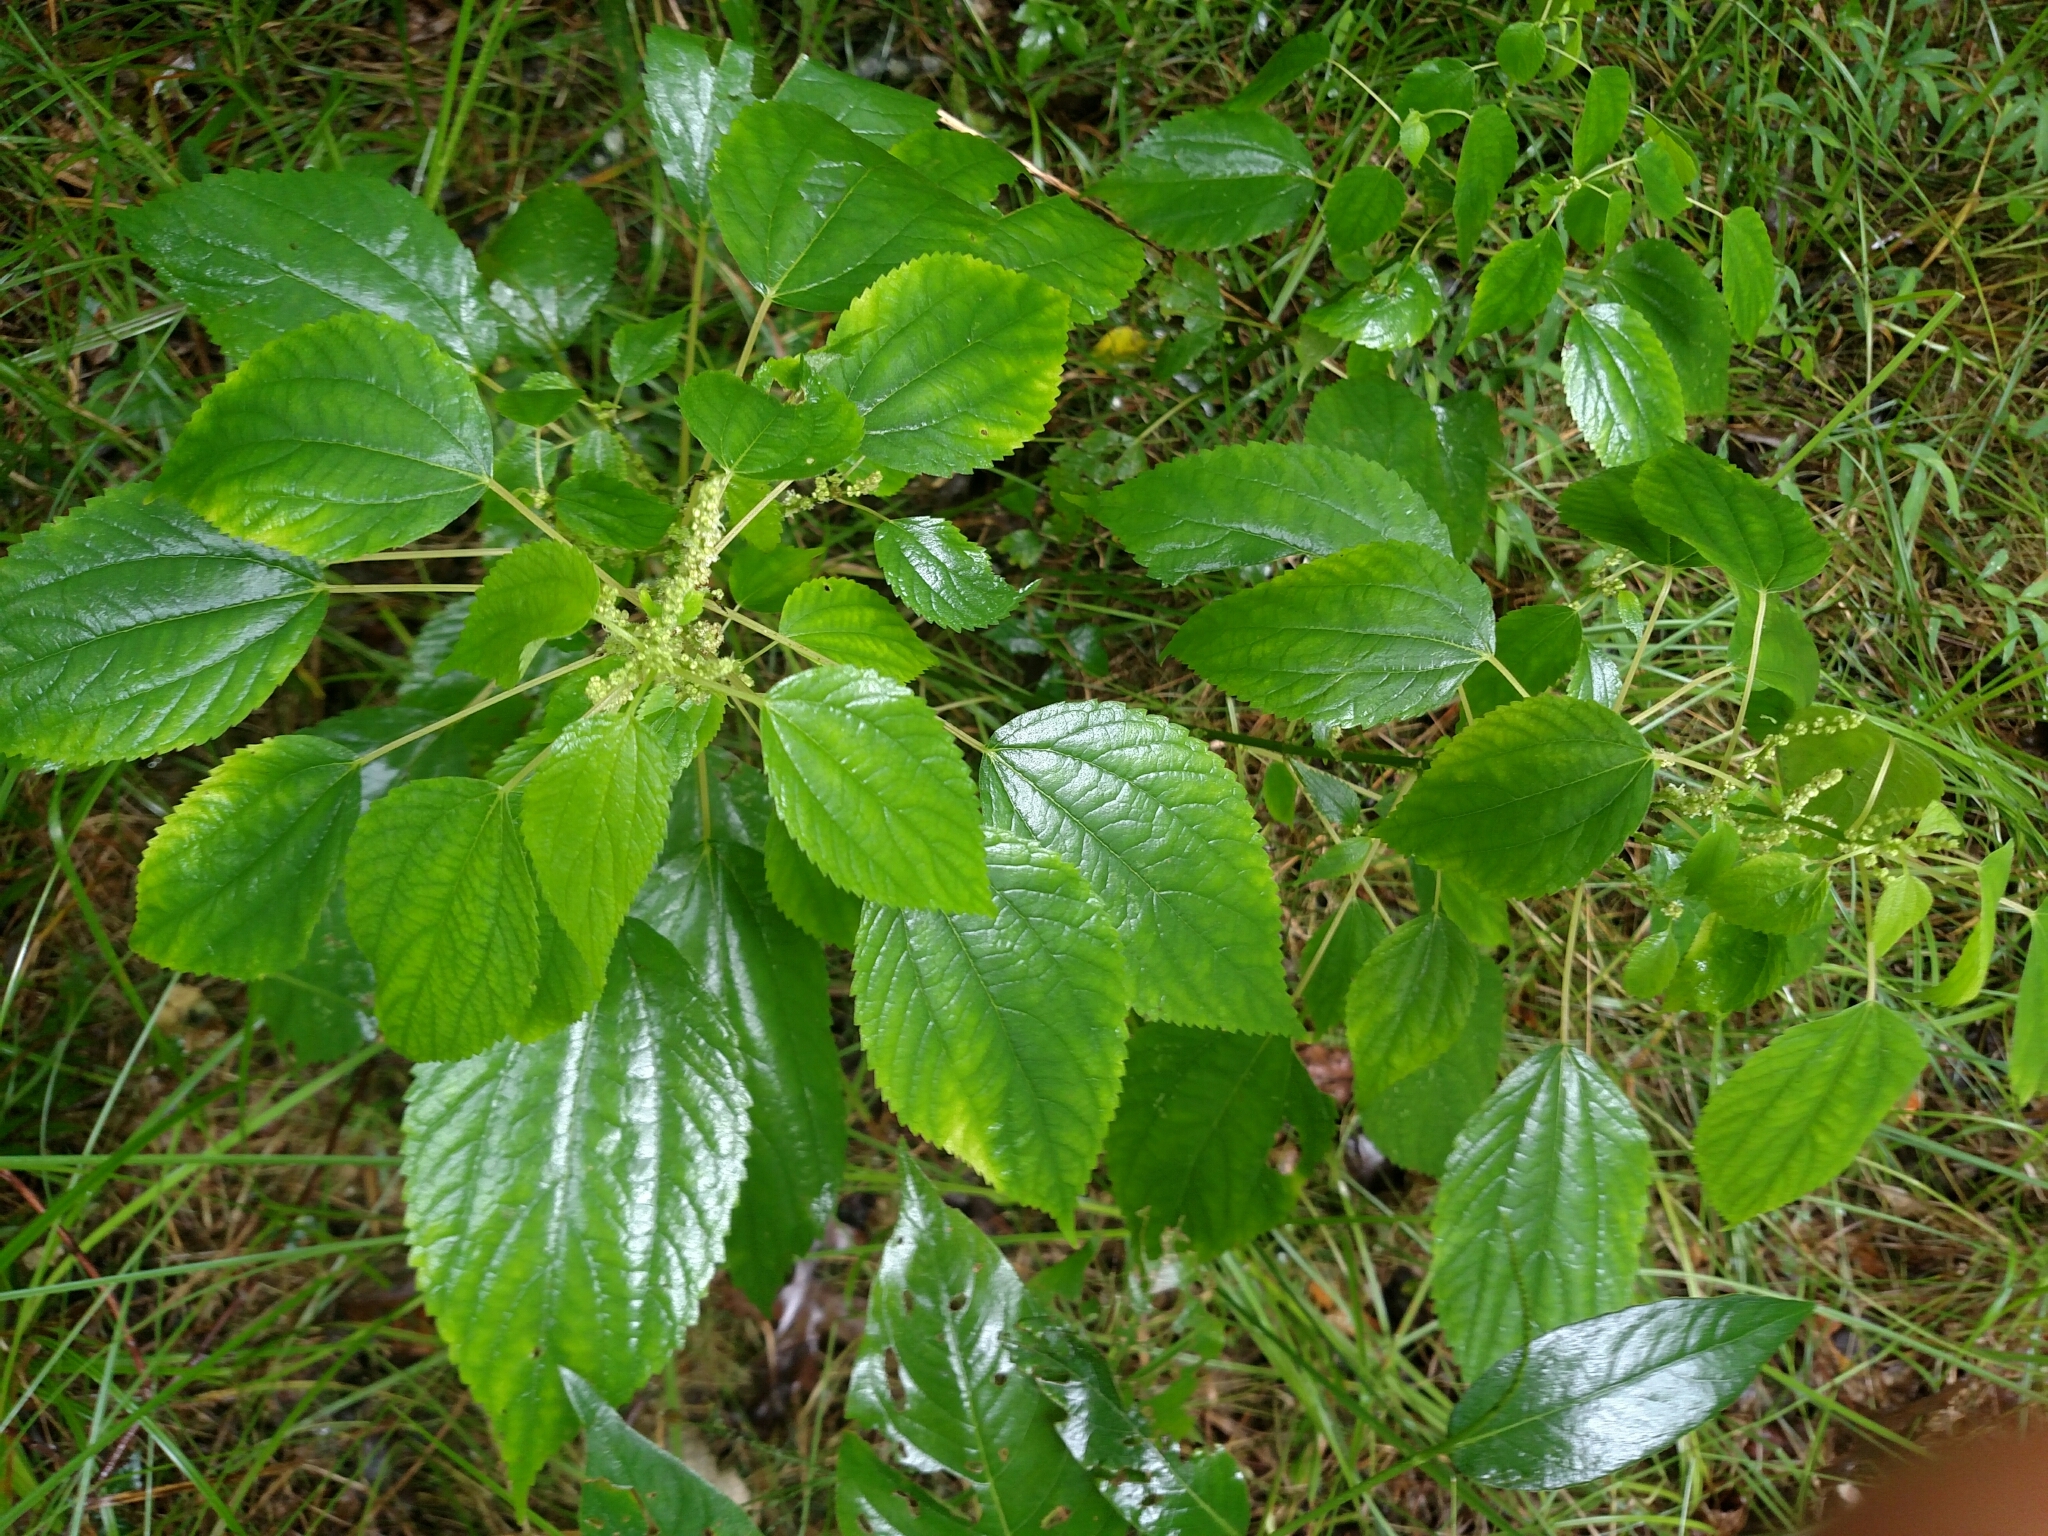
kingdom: Plantae
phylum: Tracheophyta
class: Magnoliopsida
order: Rosales
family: Urticaceae
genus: Boehmeria
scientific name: Boehmeria cylindrica
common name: Bog-hemp
